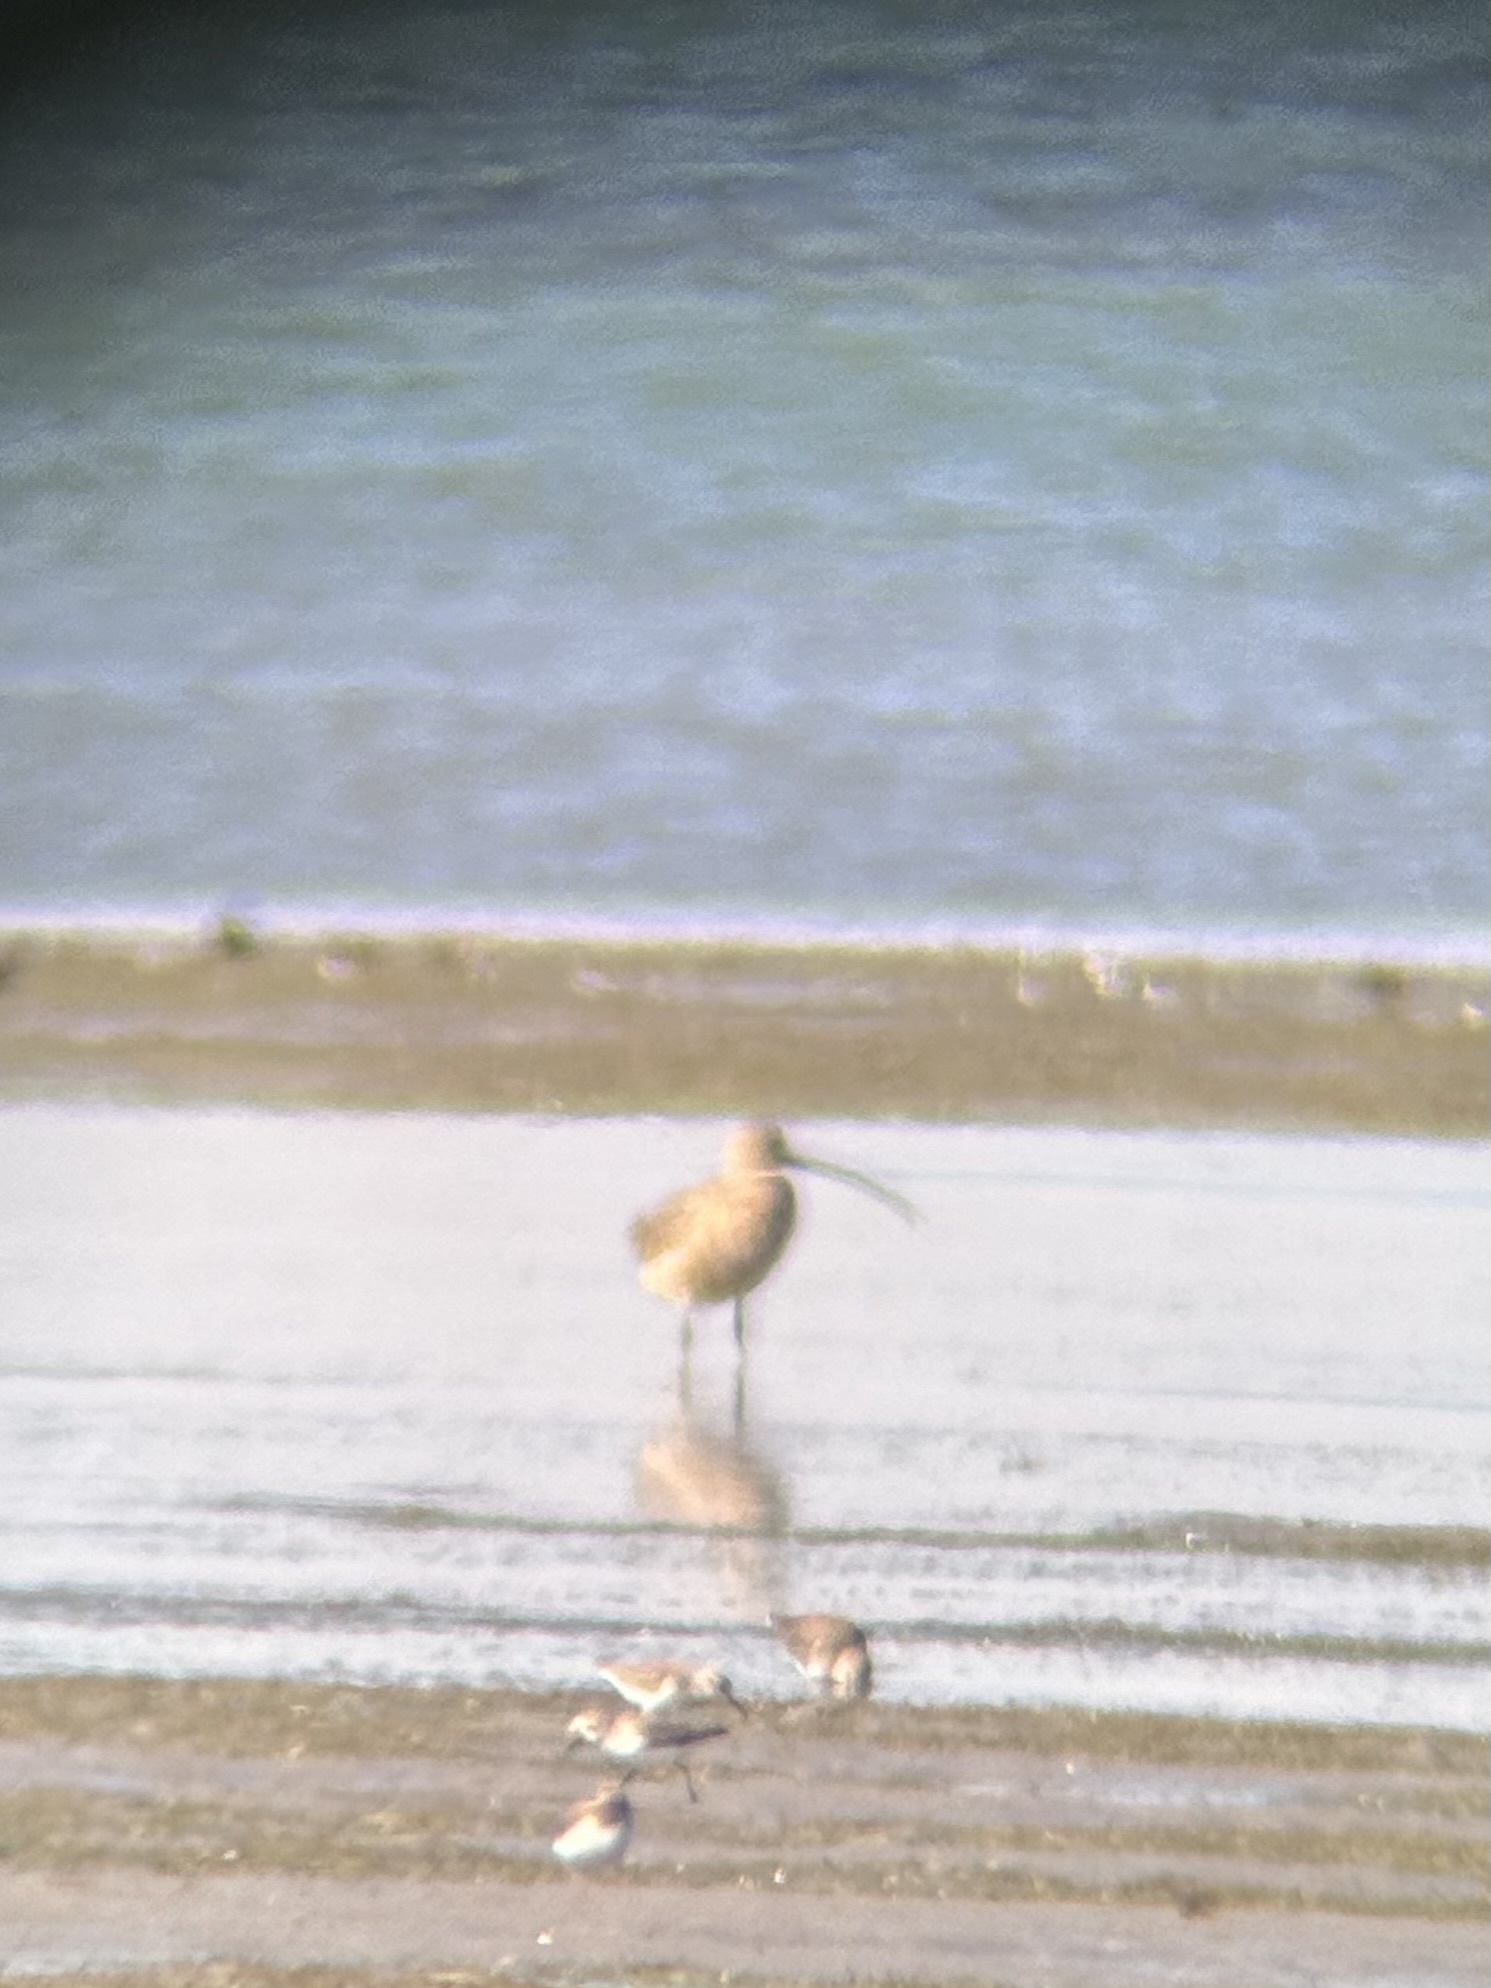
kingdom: Animalia
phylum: Chordata
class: Aves
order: Charadriiformes
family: Scolopacidae
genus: Numenius
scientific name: Numenius americanus
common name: Long-billed curlew
